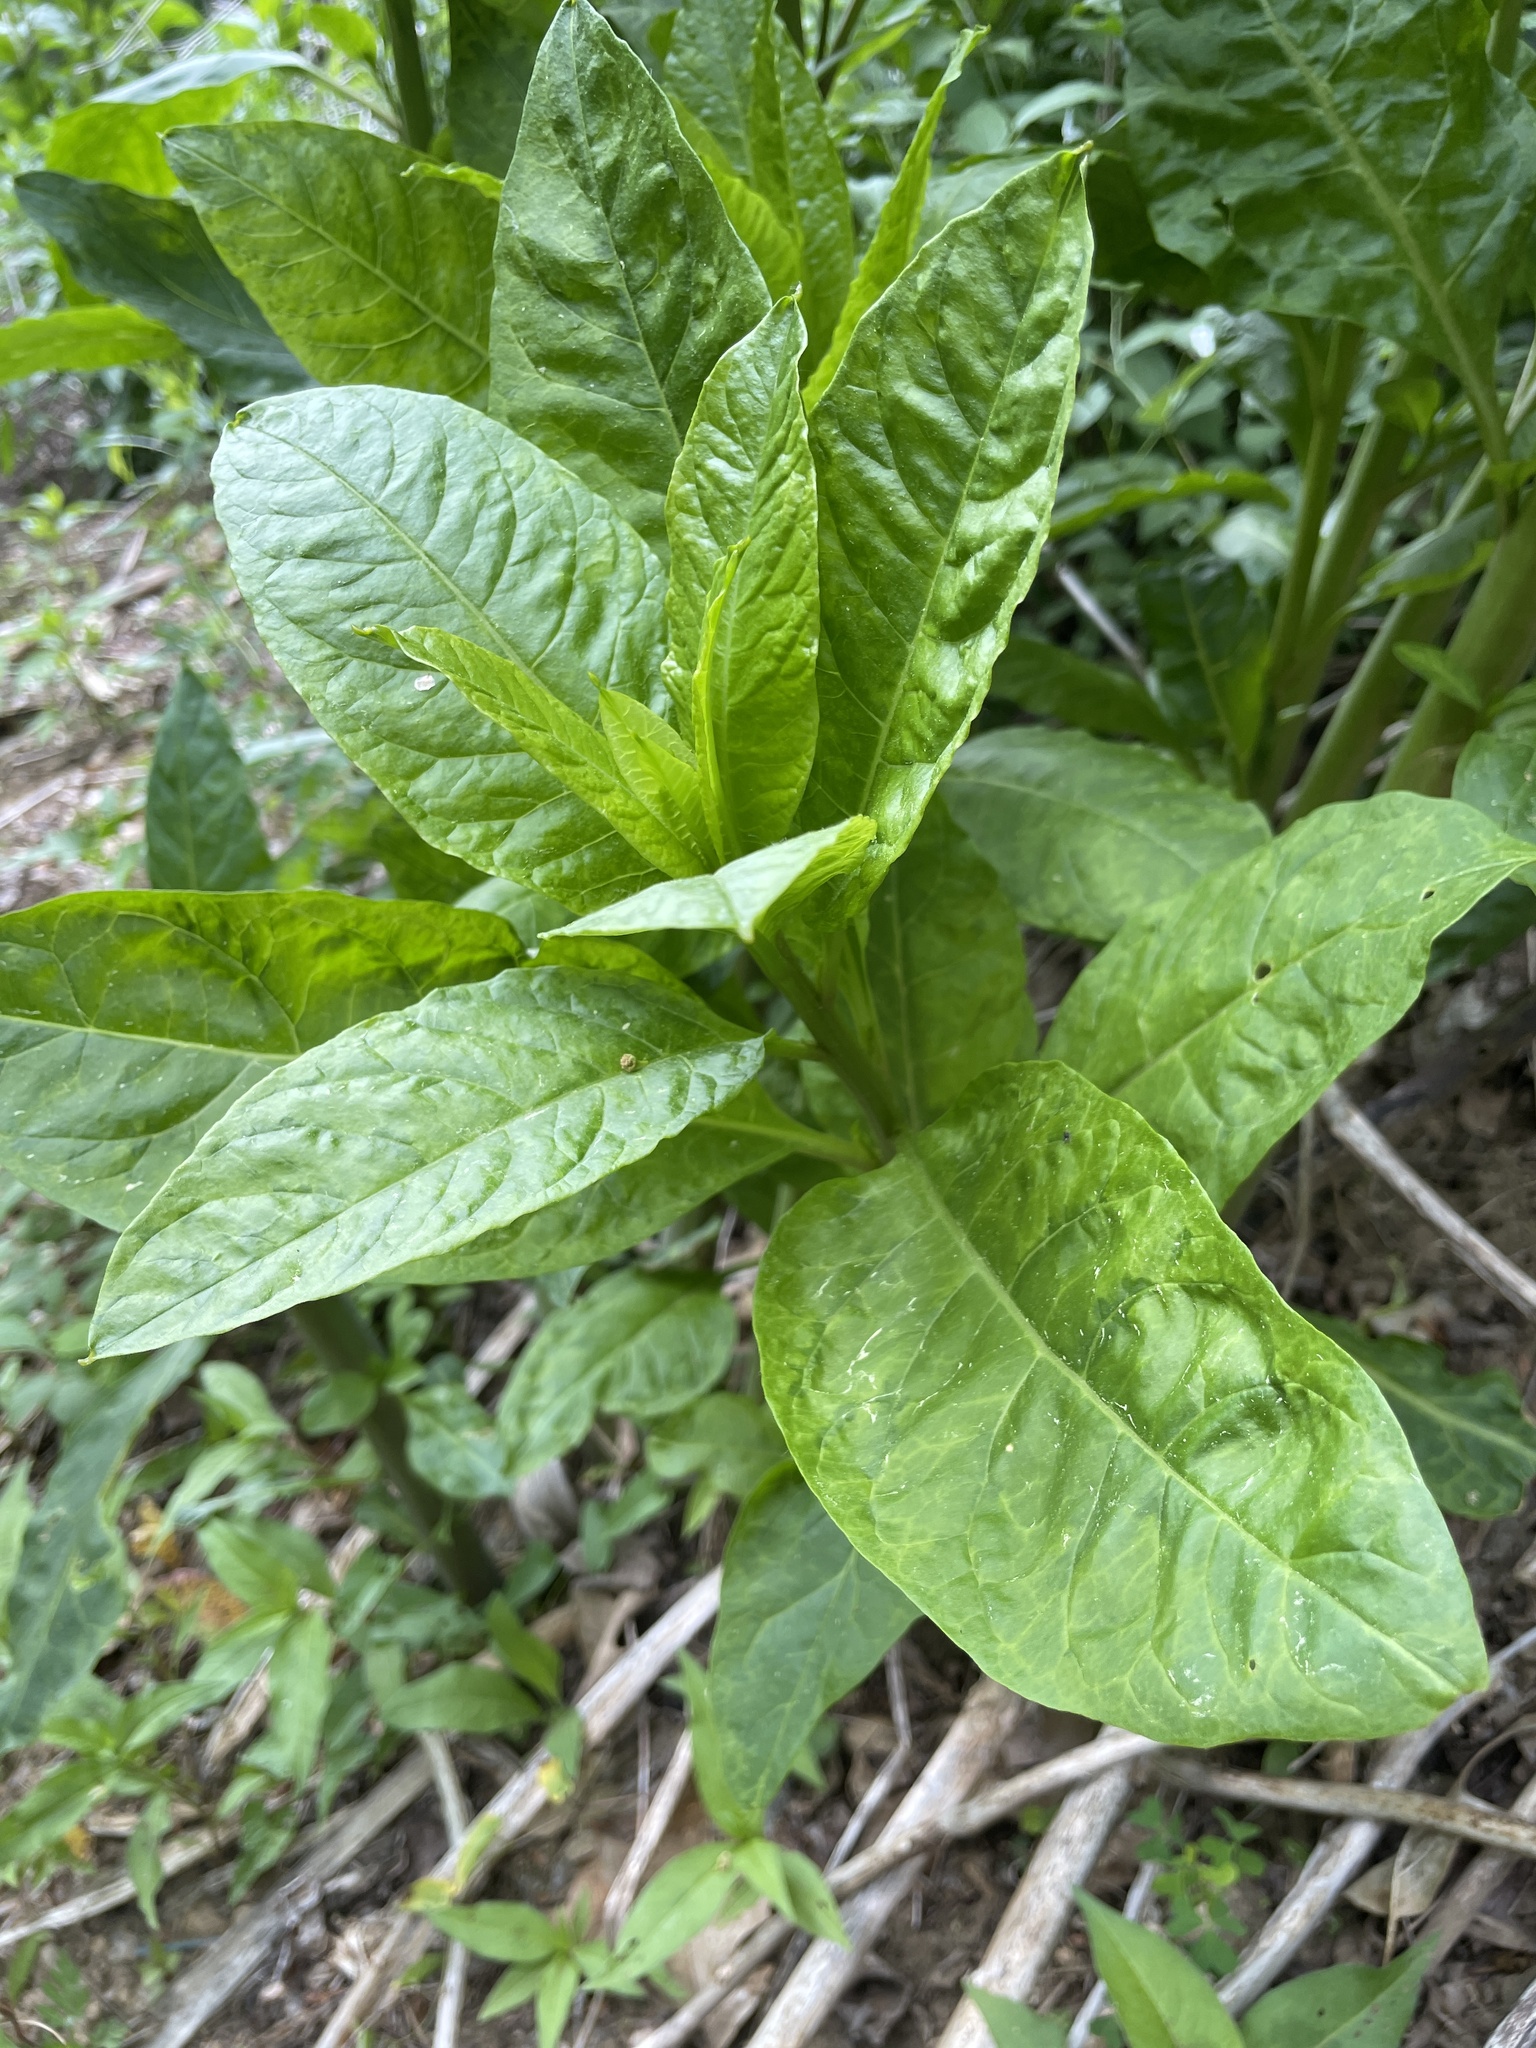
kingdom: Plantae
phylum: Tracheophyta
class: Magnoliopsida
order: Caryophyllales
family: Phytolaccaceae
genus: Phytolacca
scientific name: Phytolacca americana
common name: American pokeweed
